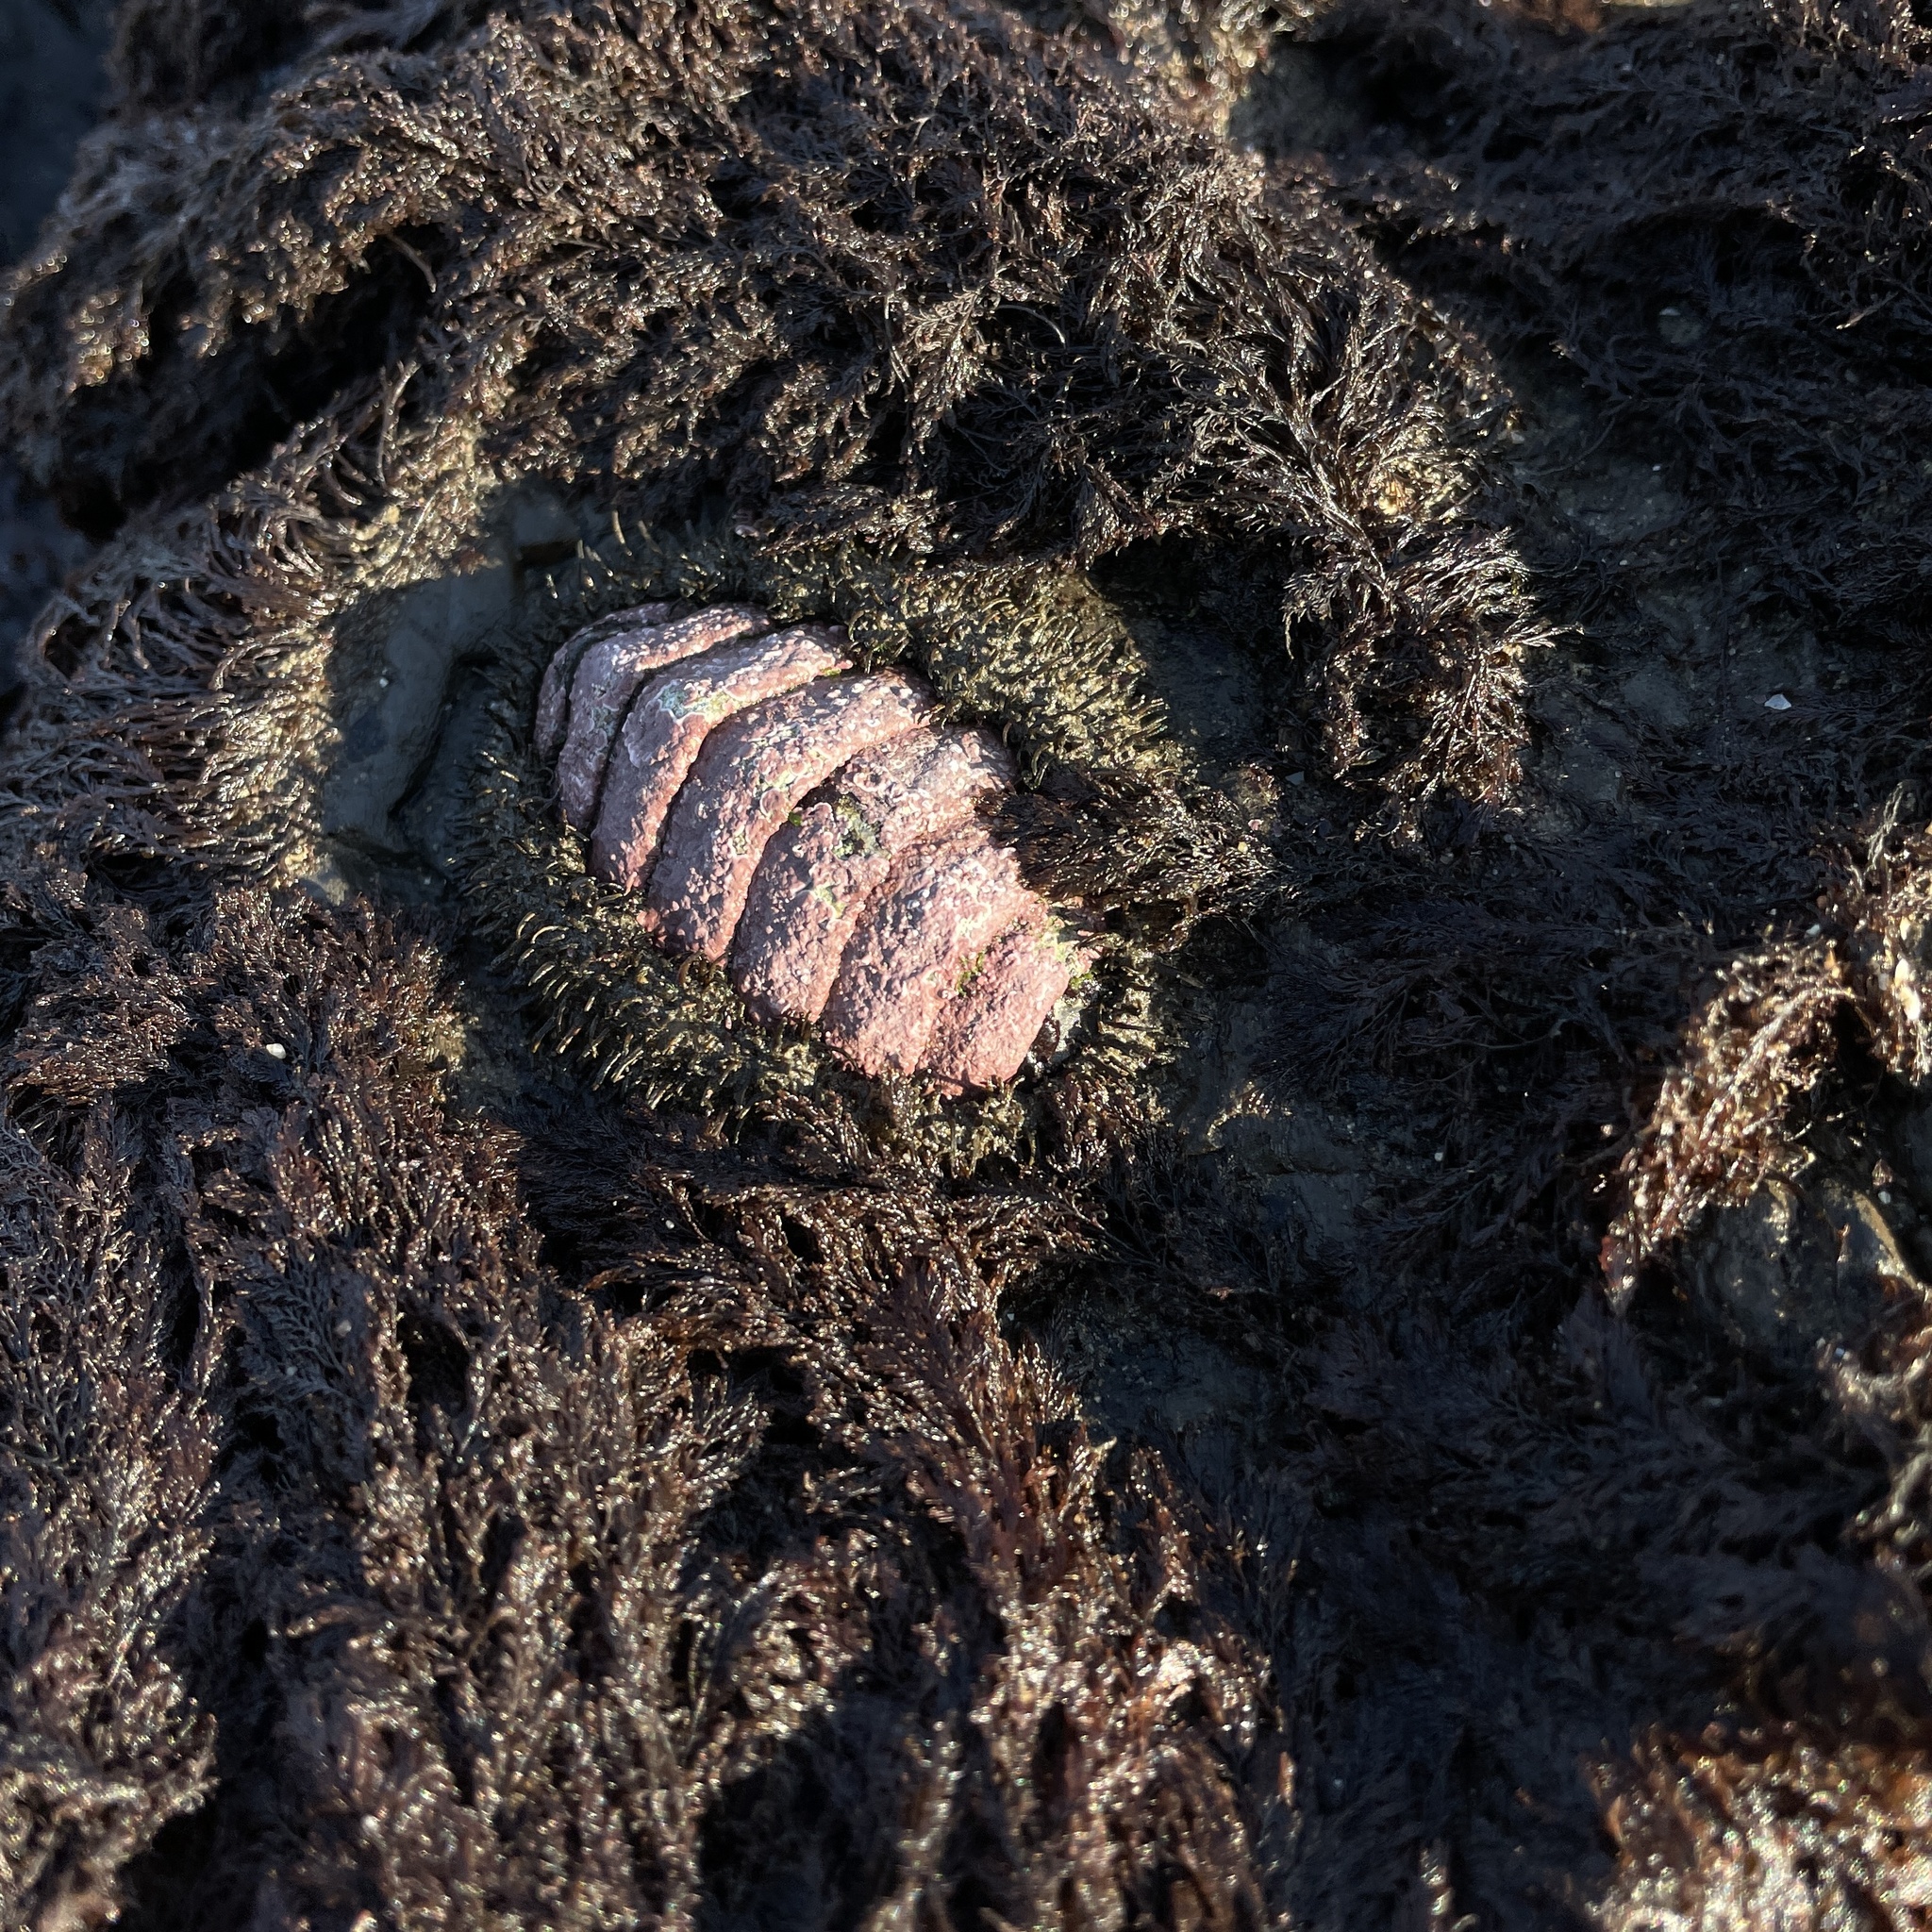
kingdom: Animalia
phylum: Mollusca
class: Polyplacophora
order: Chitonida
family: Mopaliidae
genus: Mopalia
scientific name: Mopalia muscosa
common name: Mossy chiton
